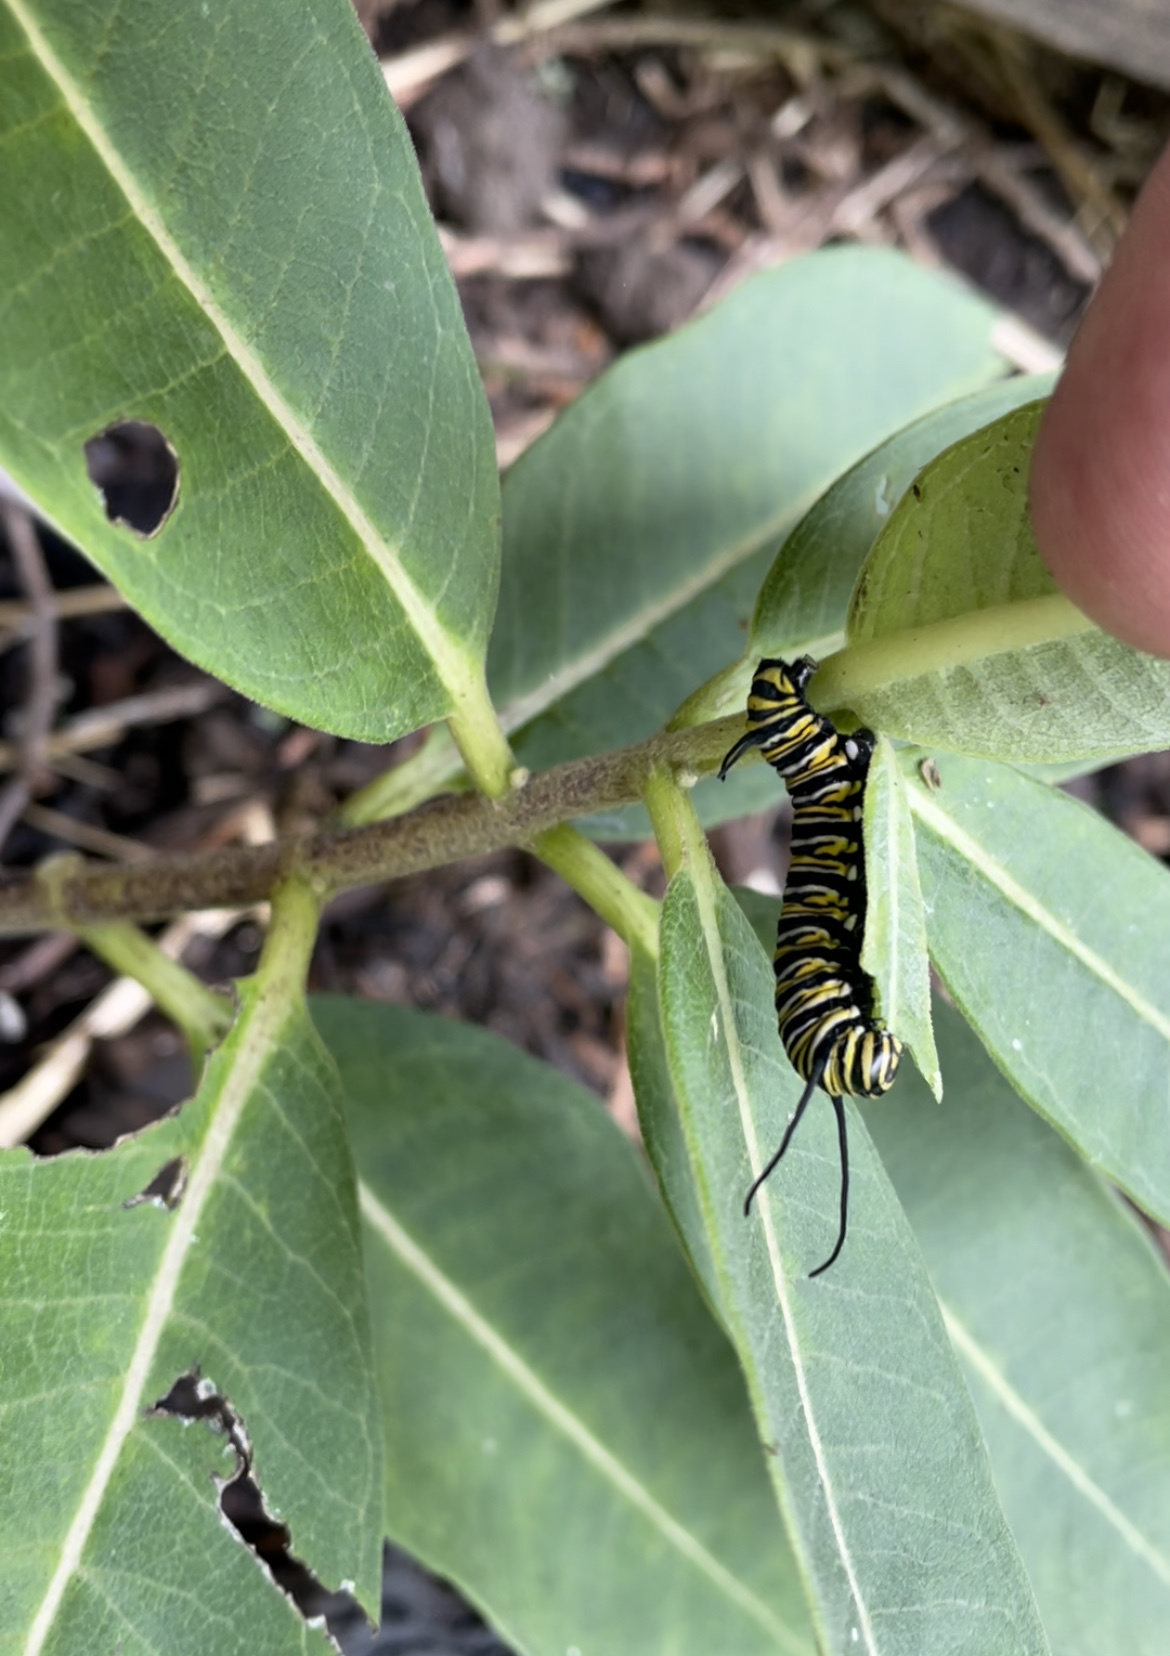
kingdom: Animalia
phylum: Arthropoda
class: Insecta
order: Lepidoptera
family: Nymphalidae
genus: Danaus
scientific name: Danaus plexippus
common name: Monarch
